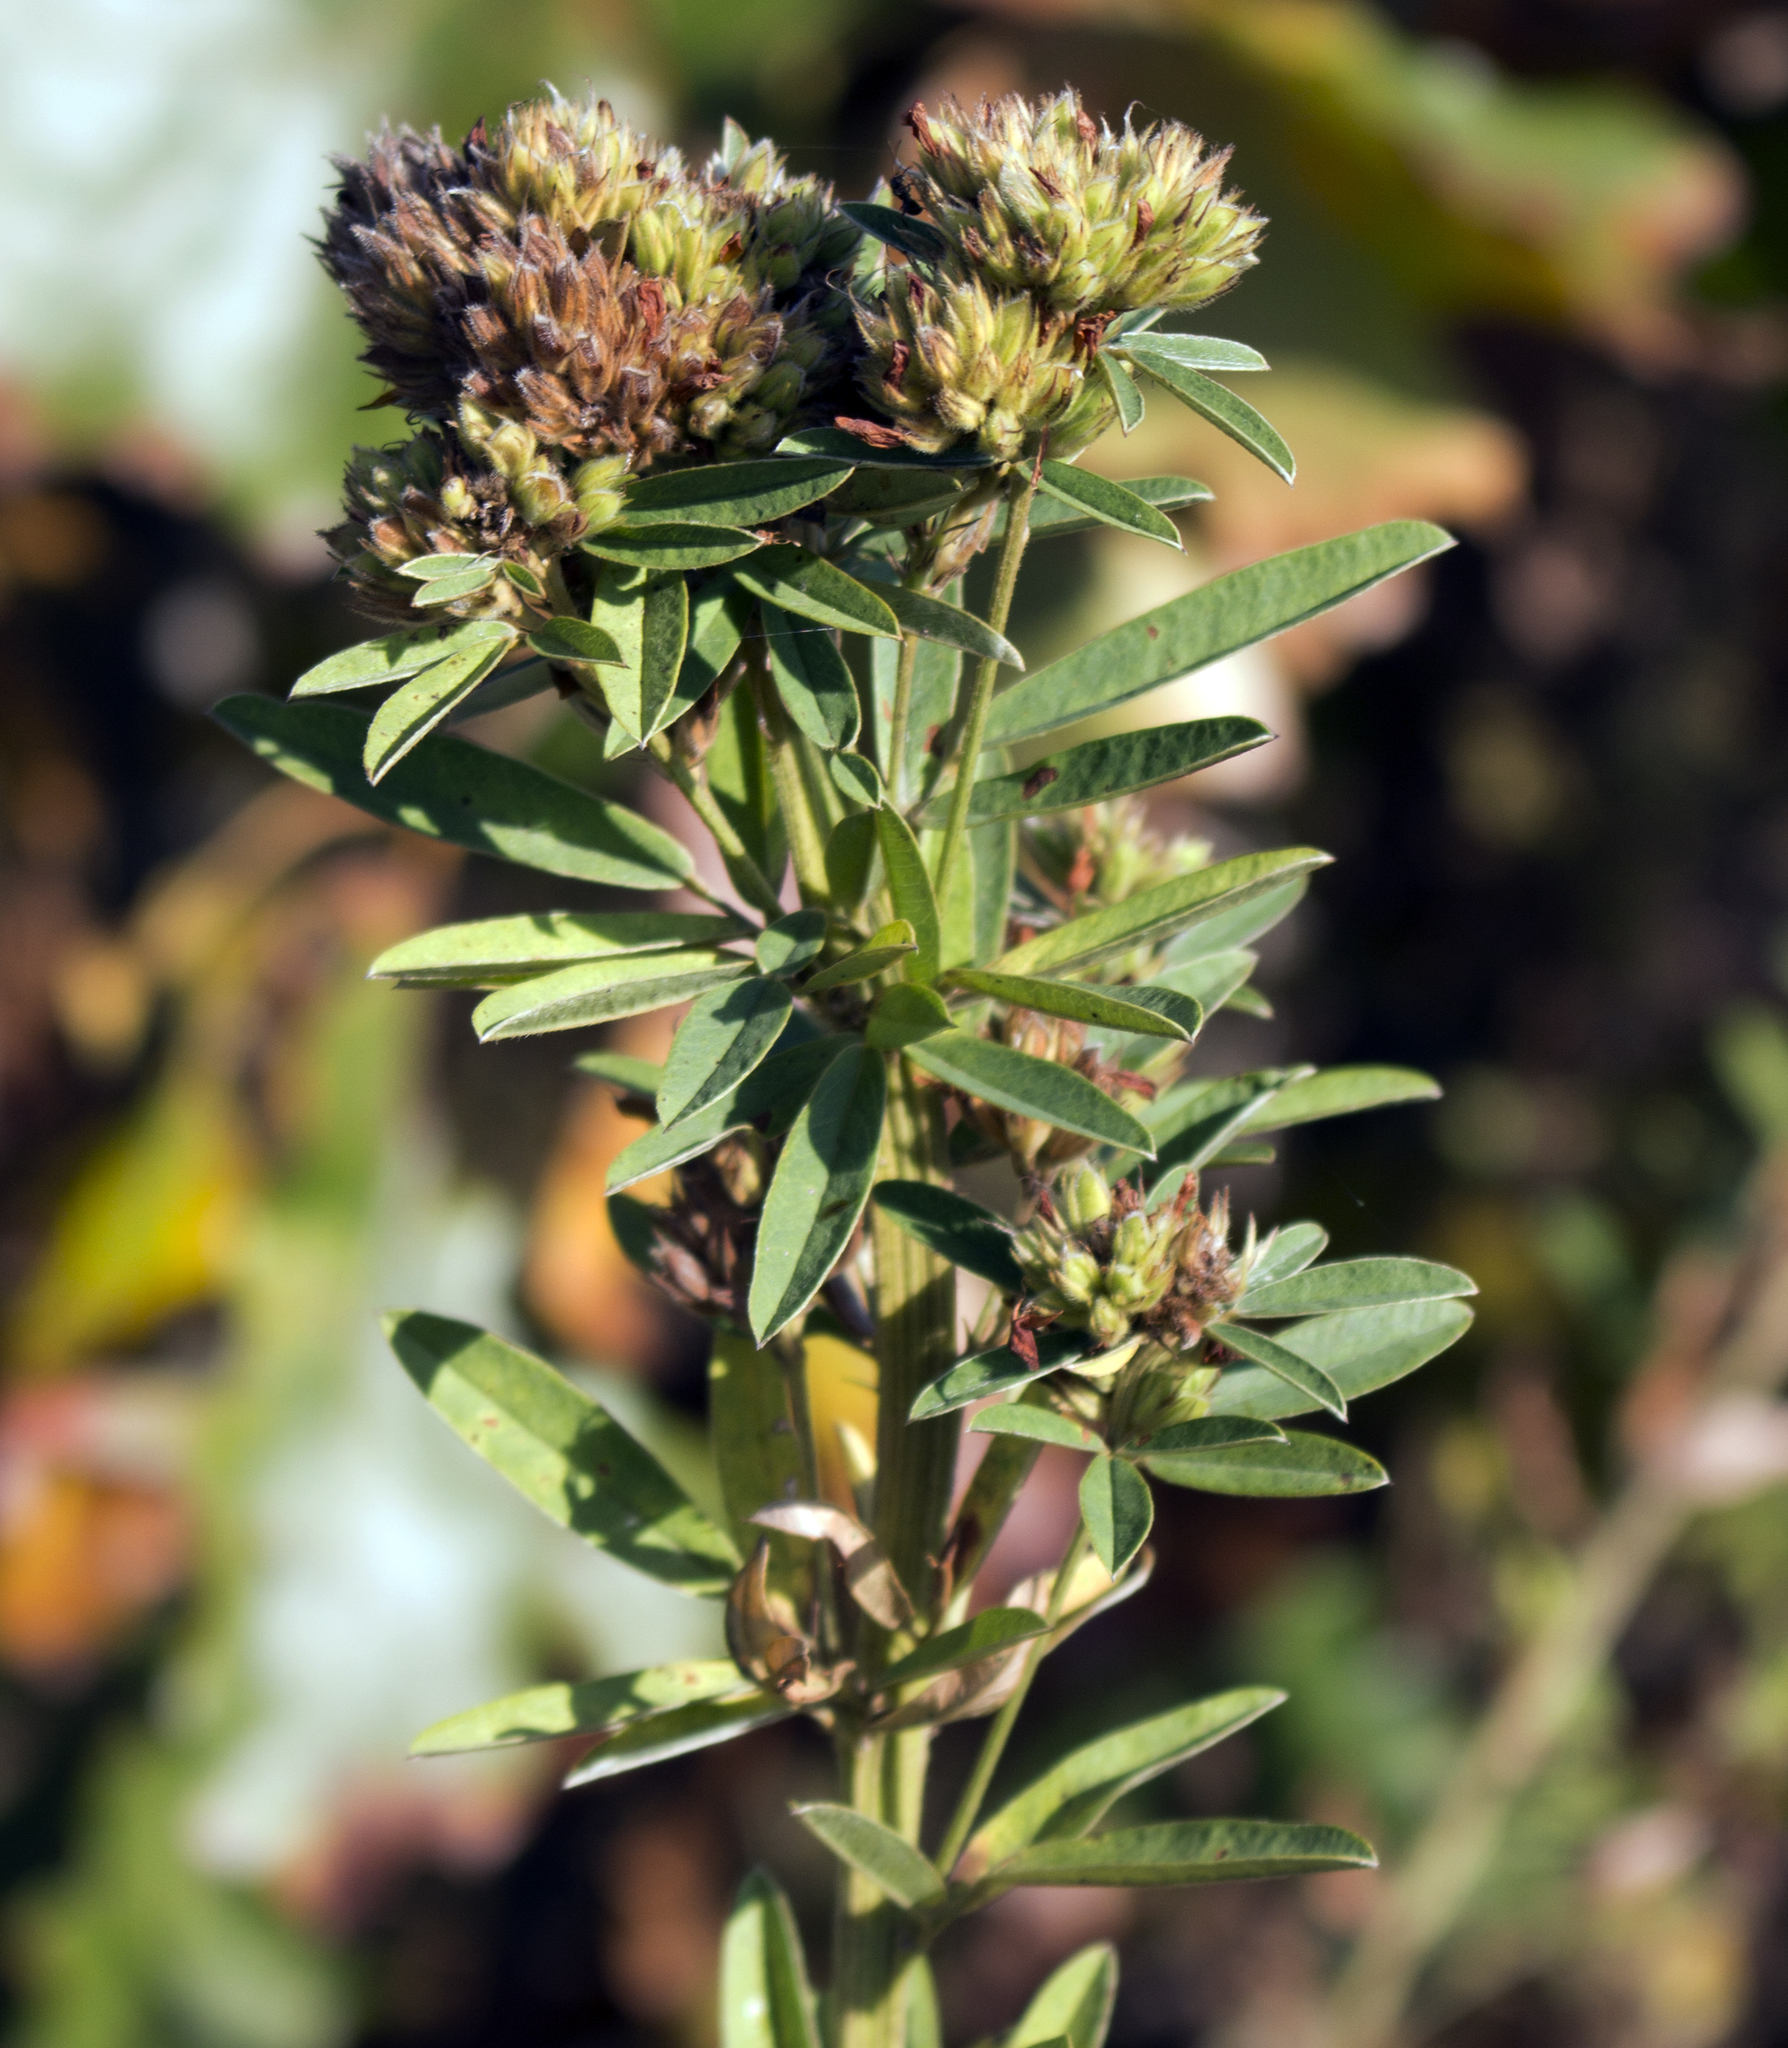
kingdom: Plantae
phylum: Tracheophyta
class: Magnoliopsida
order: Fabales
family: Fabaceae
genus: Lespedeza
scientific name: Lespedeza capitata
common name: Dusty clover
